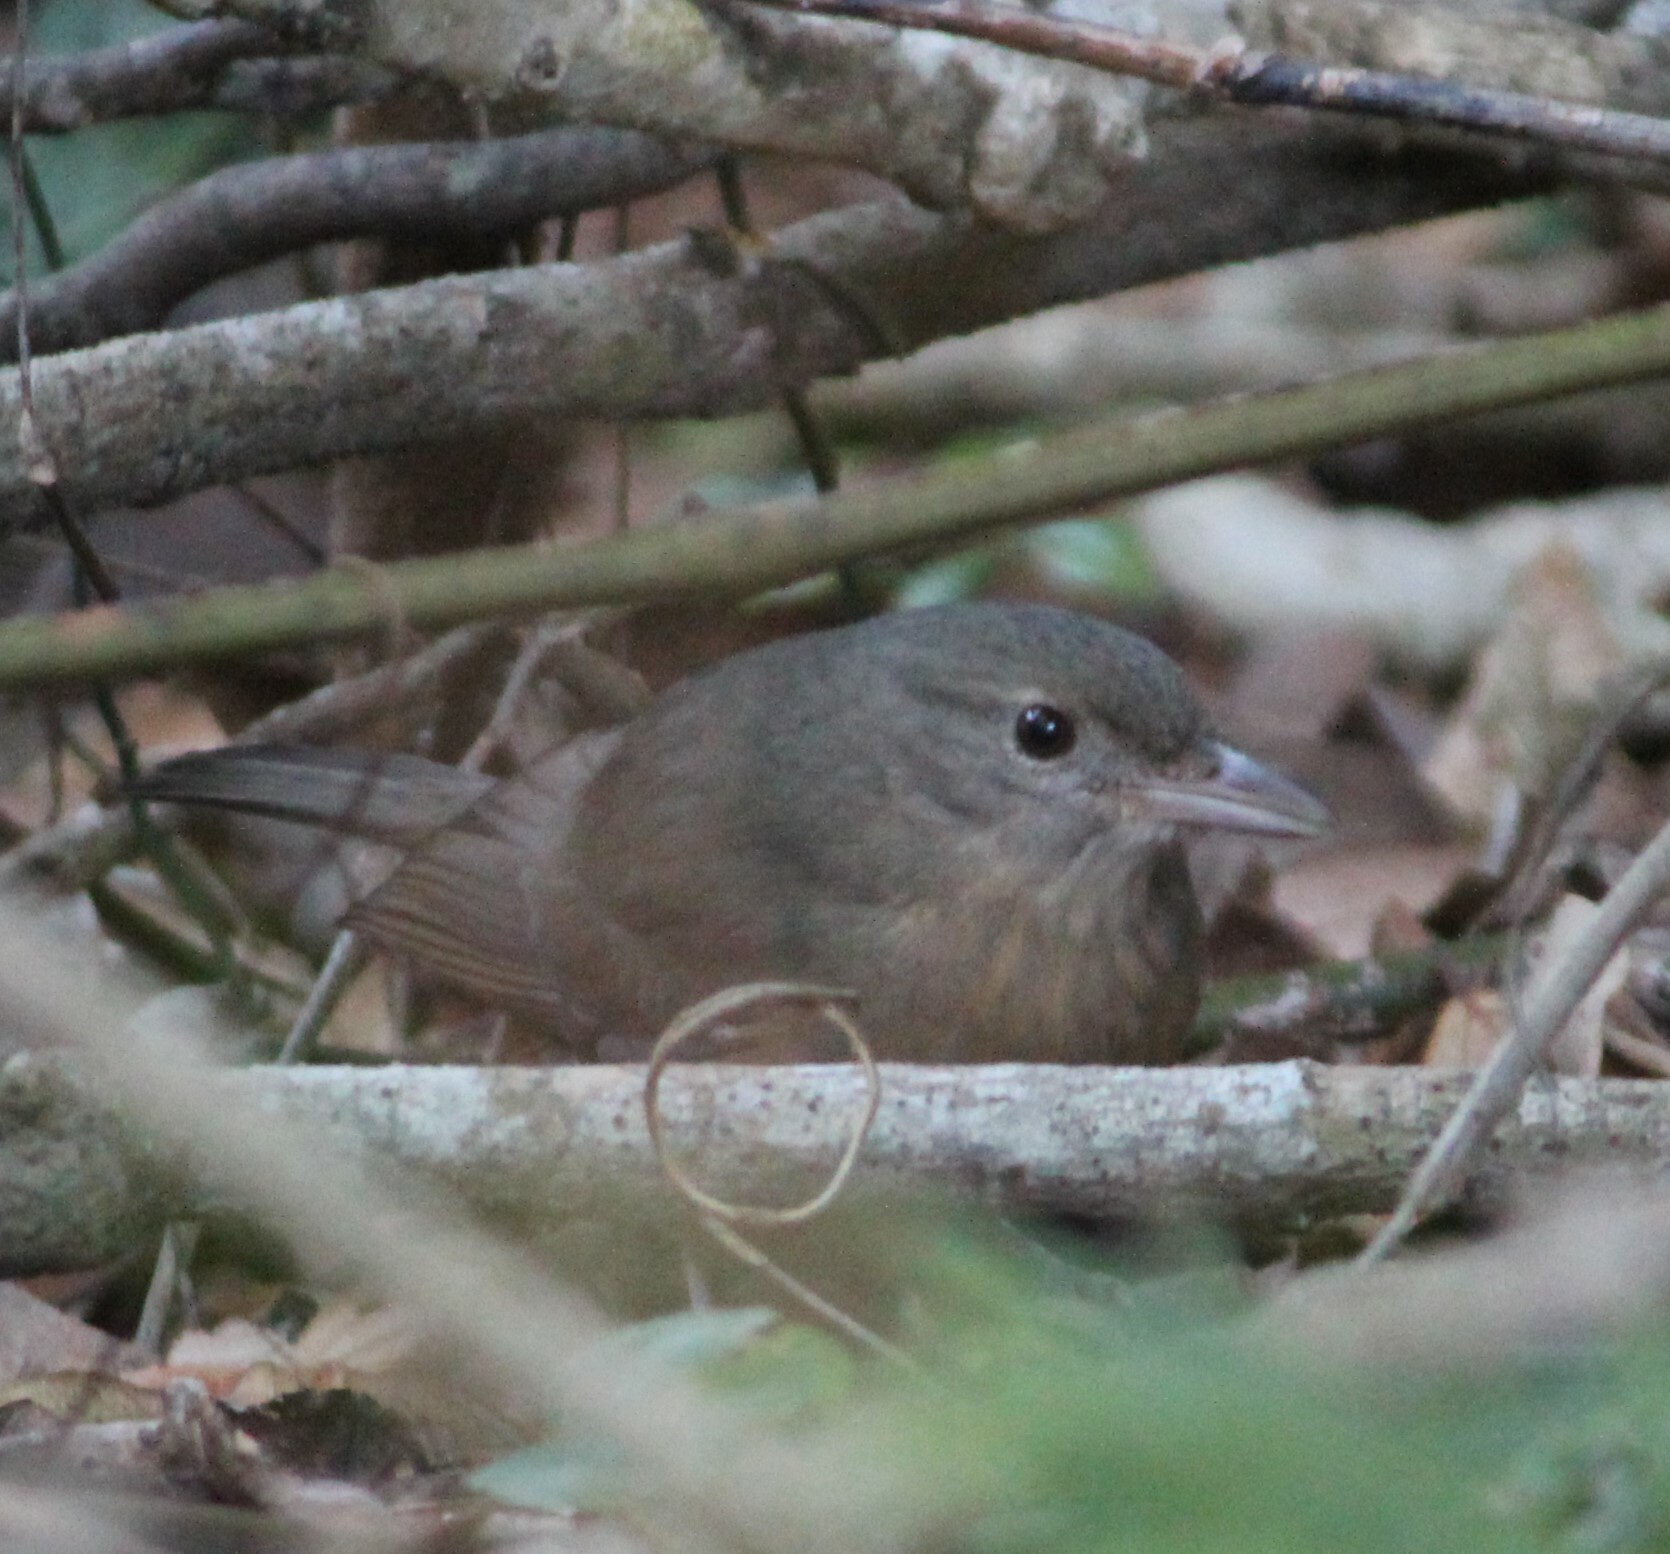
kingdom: Animalia
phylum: Chordata
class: Aves
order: Passeriformes
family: Pachycephalidae
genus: Colluricincla
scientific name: Colluricincla rufogaster
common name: Rufous shrikethrush
